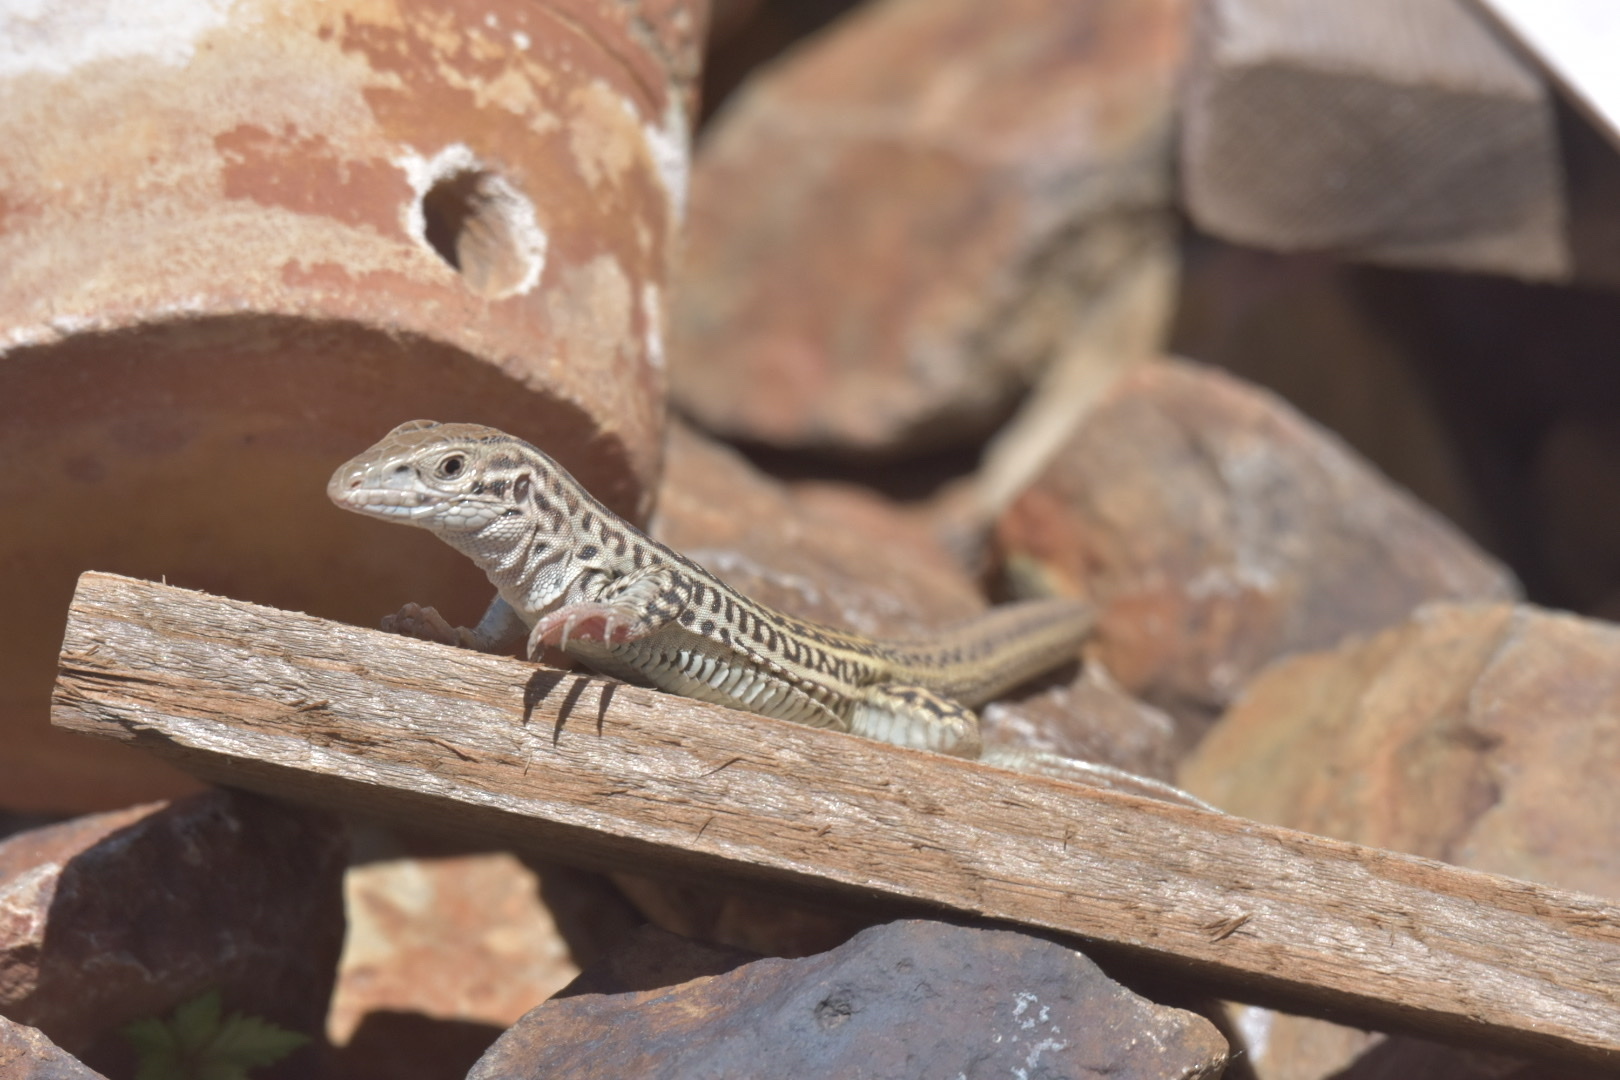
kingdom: Animalia
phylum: Chordata
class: Squamata
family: Teiidae
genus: Aspidoscelis
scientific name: Aspidoscelis neotesselatus
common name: Colorado checkered whiptail
